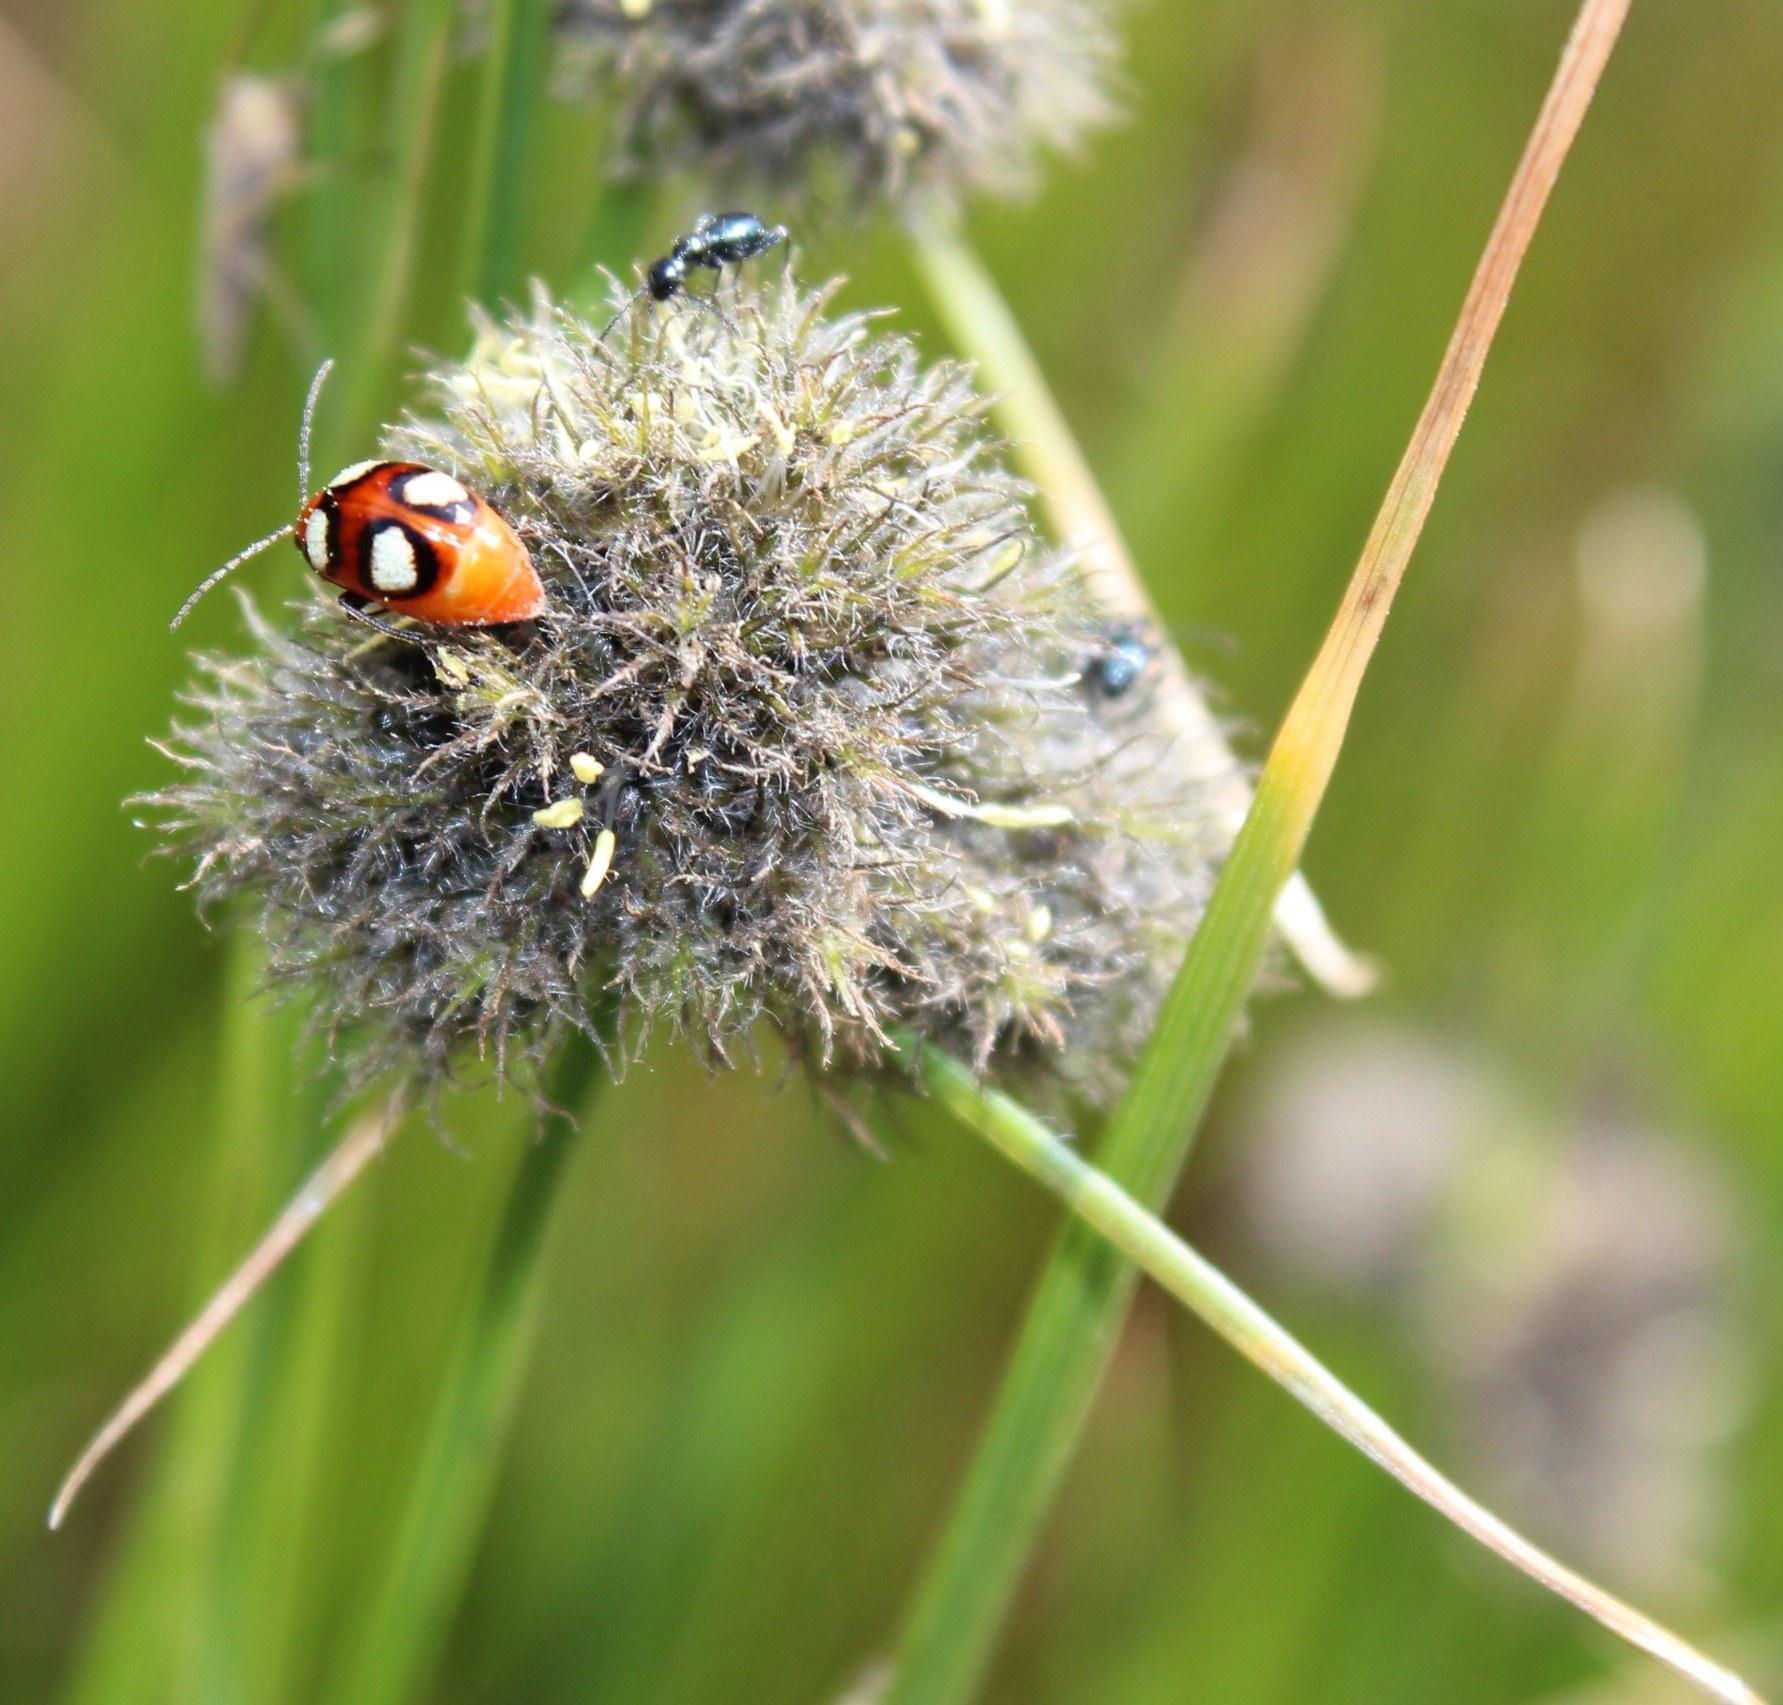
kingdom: Plantae
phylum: Tracheophyta
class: Liliopsida
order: Poales
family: Cyperaceae
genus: Fuirena
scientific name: Fuirena hirsuta
